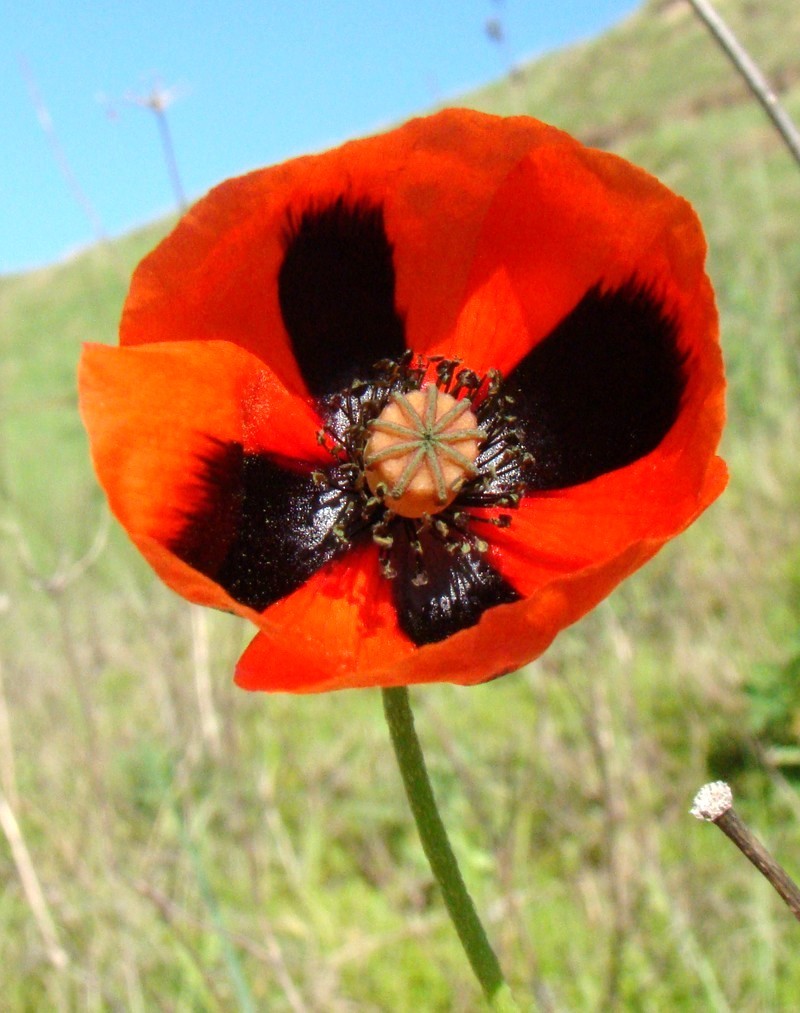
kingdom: Plantae
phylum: Tracheophyta
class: Magnoliopsida
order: Ranunculales
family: Papaveraceae
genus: Papaver
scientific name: Papaver dubium
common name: Long-headed poppy
